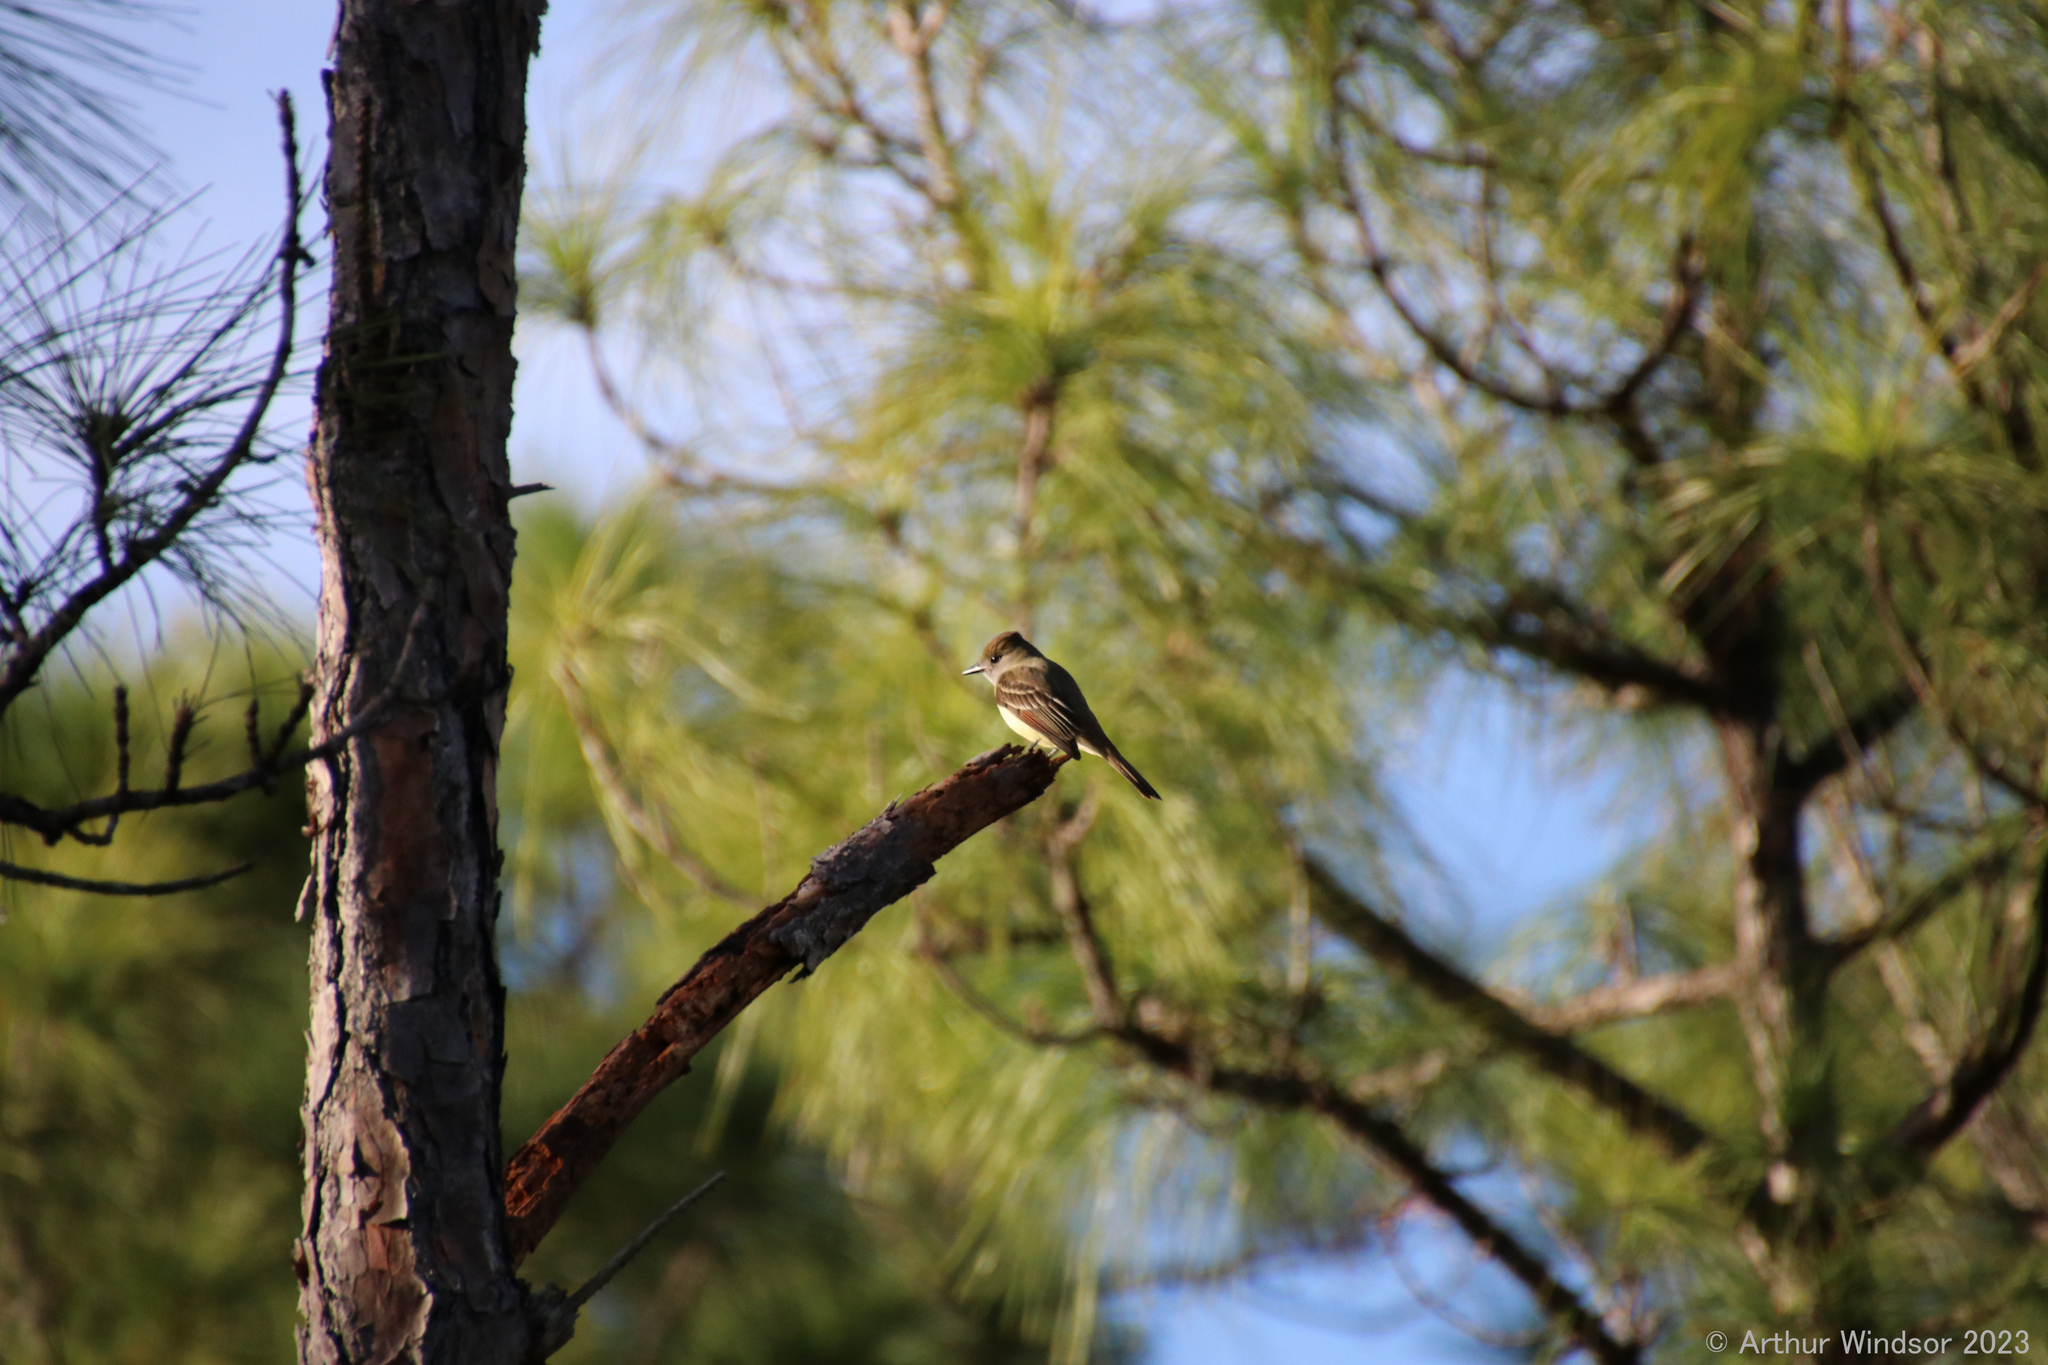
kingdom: Animalia
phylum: Chordata
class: Aves
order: Passeriformes
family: Tyrannidae
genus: Myiarchus
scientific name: Myiarchus crinitus
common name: Great crested flycatcher
